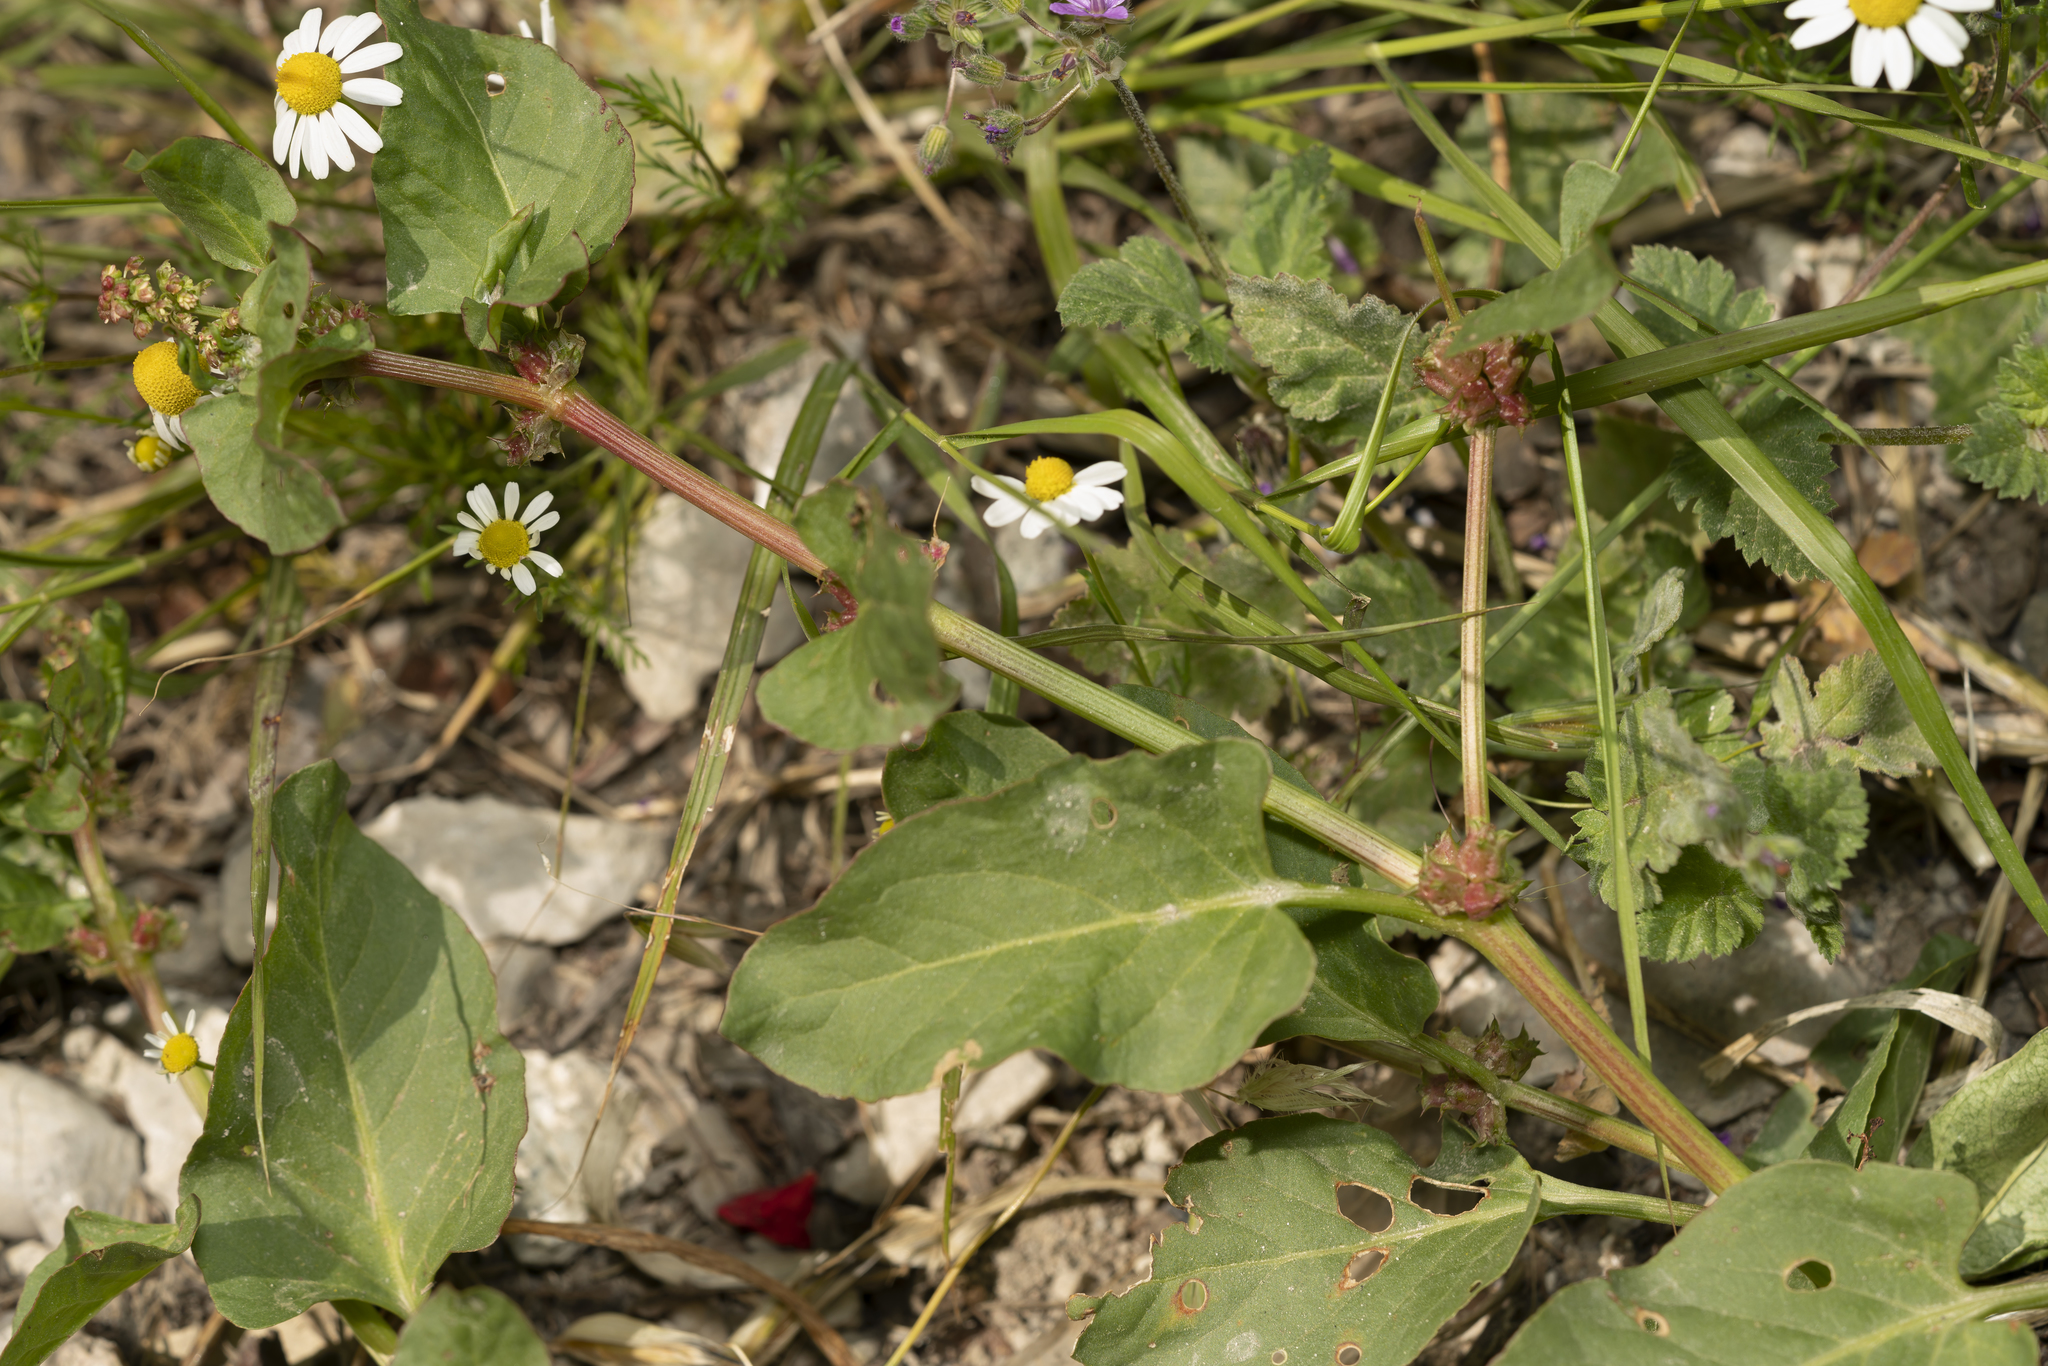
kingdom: Plantae
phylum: Tracheophyta
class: Magnoliopsida
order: Caryophyllales
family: Polygonaceae
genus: Rumex
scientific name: Rumex spinosus
